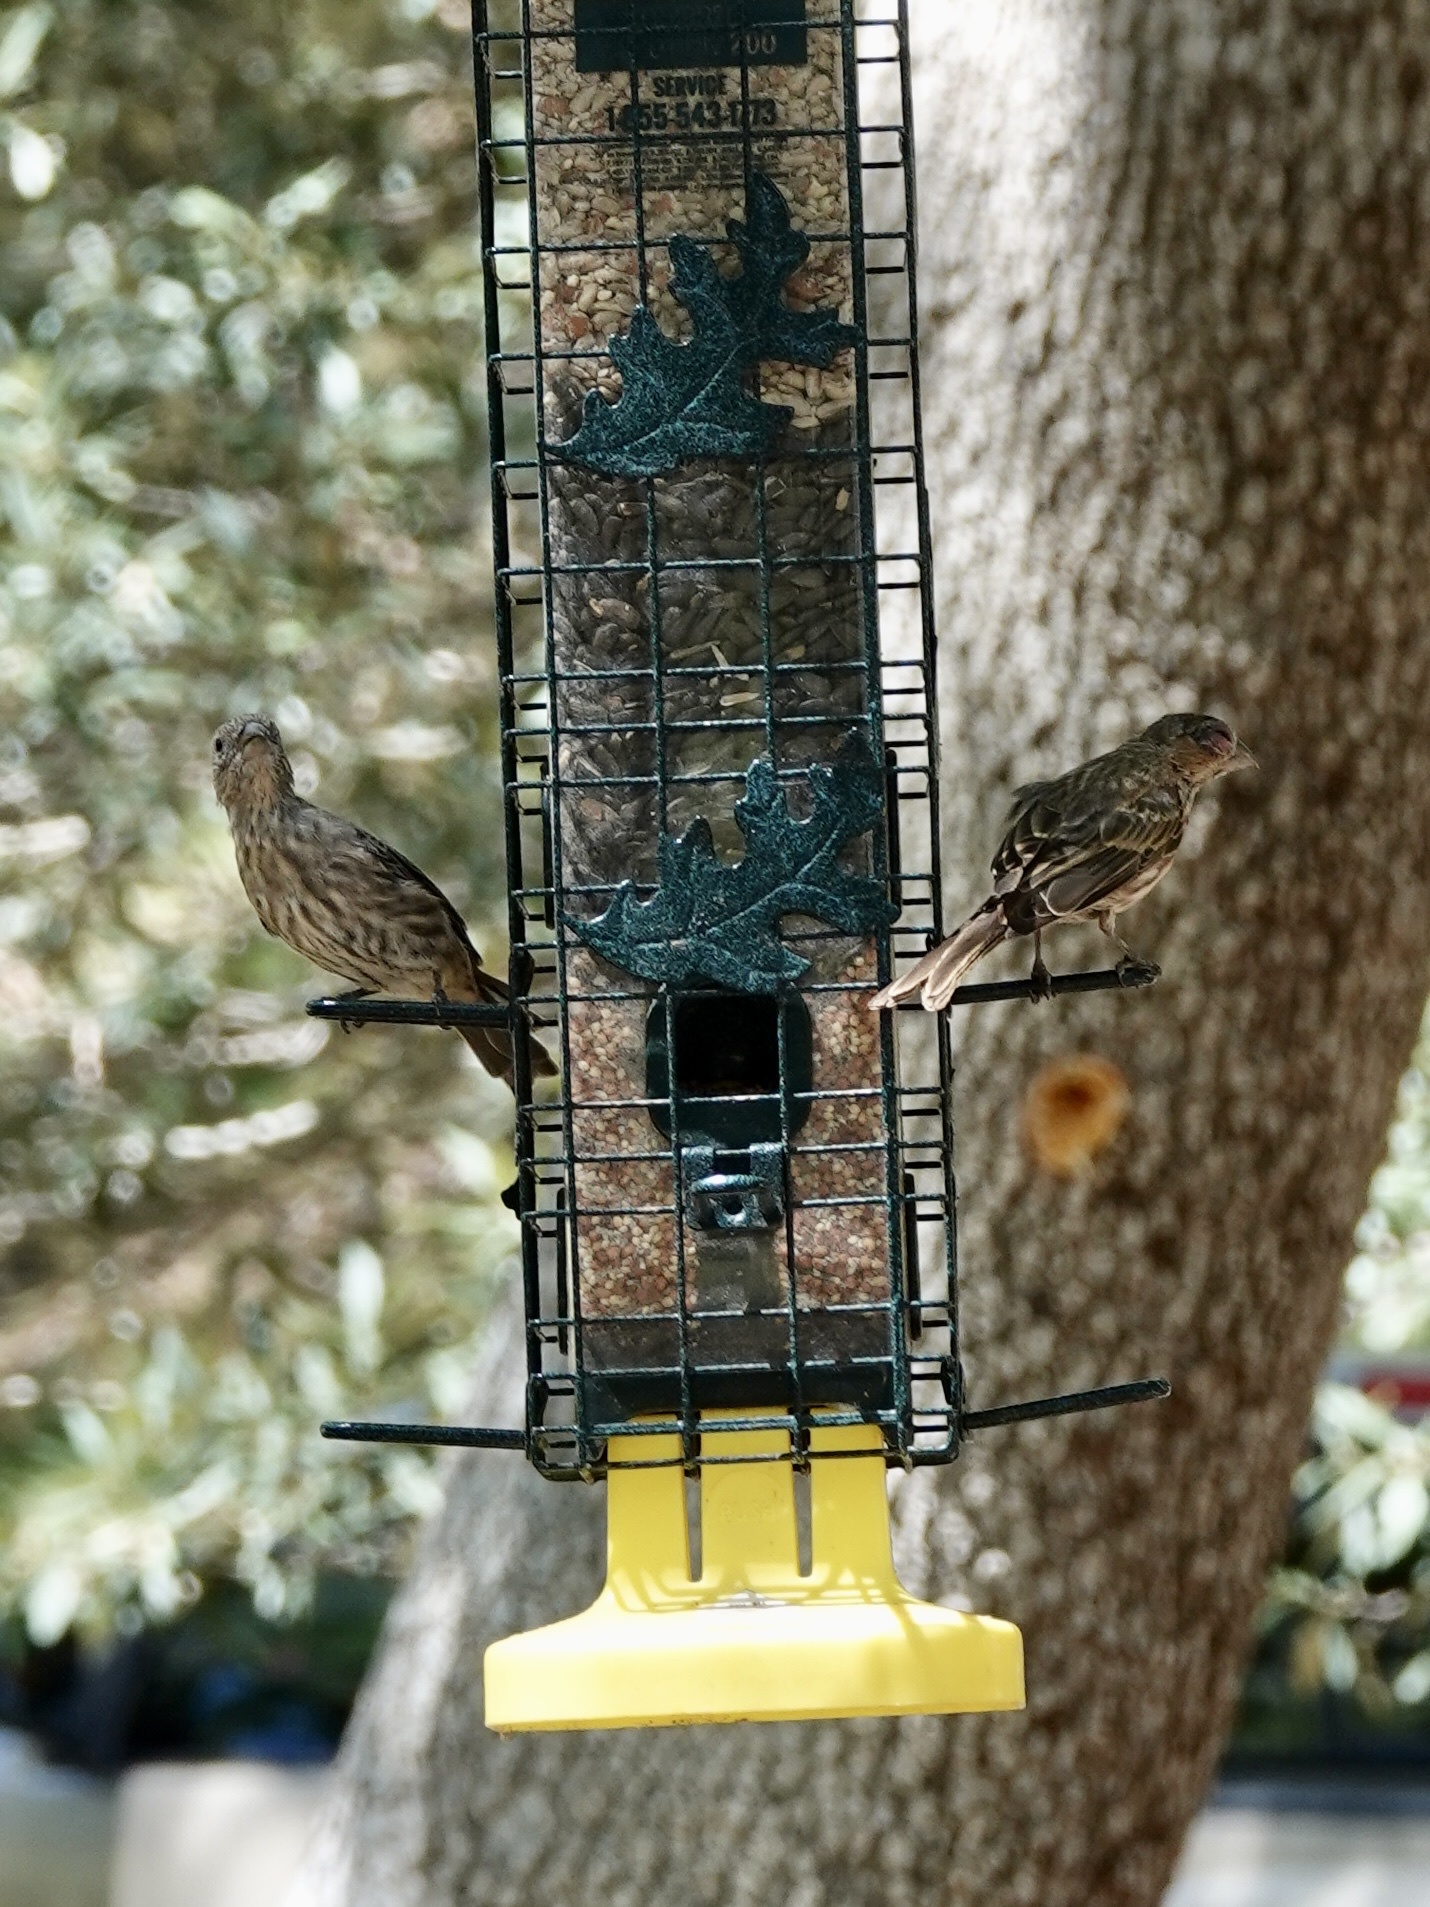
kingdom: Animalia
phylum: Chordata
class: Aves
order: Passeriformes
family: Fringillidae
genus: Haemorhous
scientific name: Haemorhous mexicanus
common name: House finch
